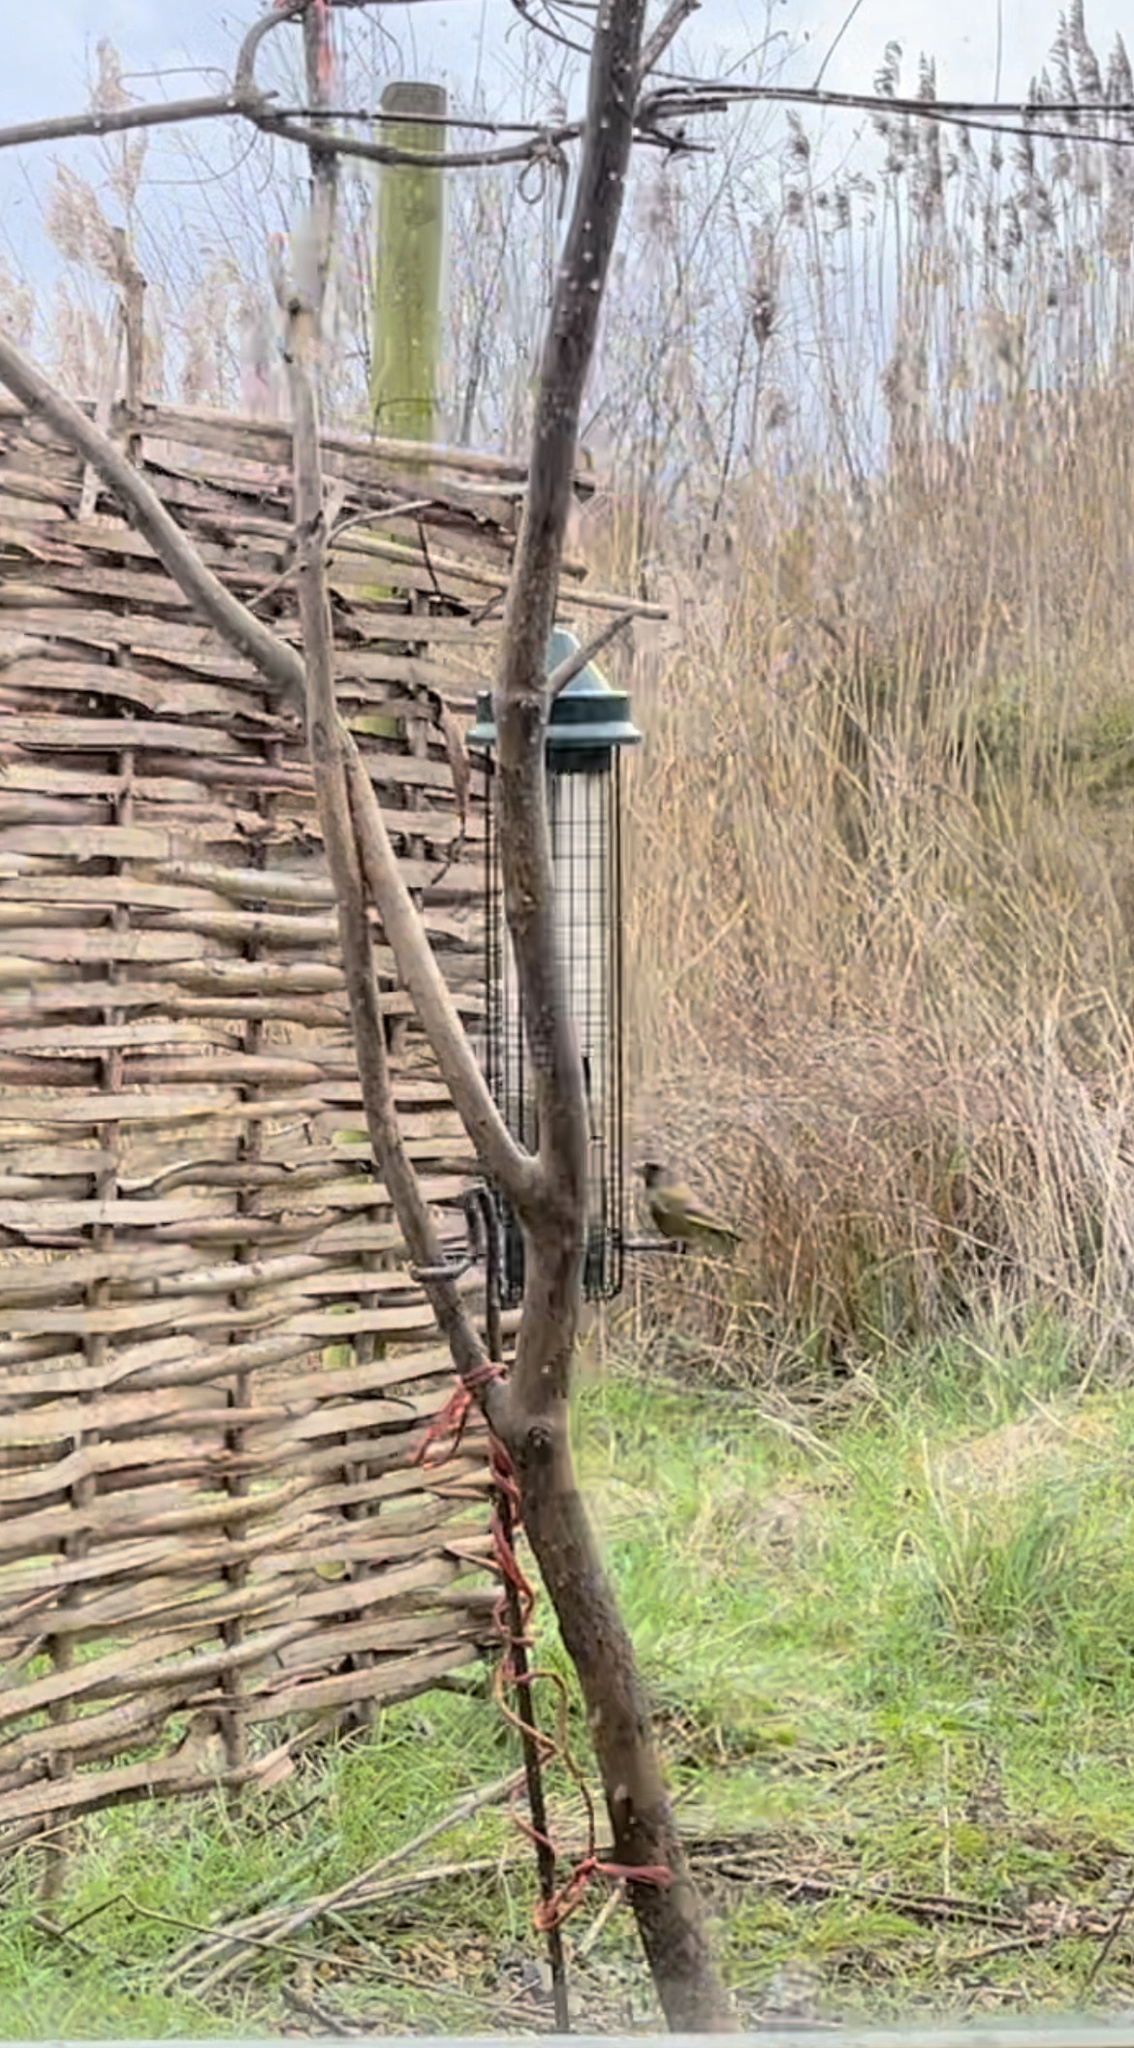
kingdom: Plantae
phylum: Tracheophyta
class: Liliopsida
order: Poales
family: Poaceae
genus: Chloris
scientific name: Chloris chloris
